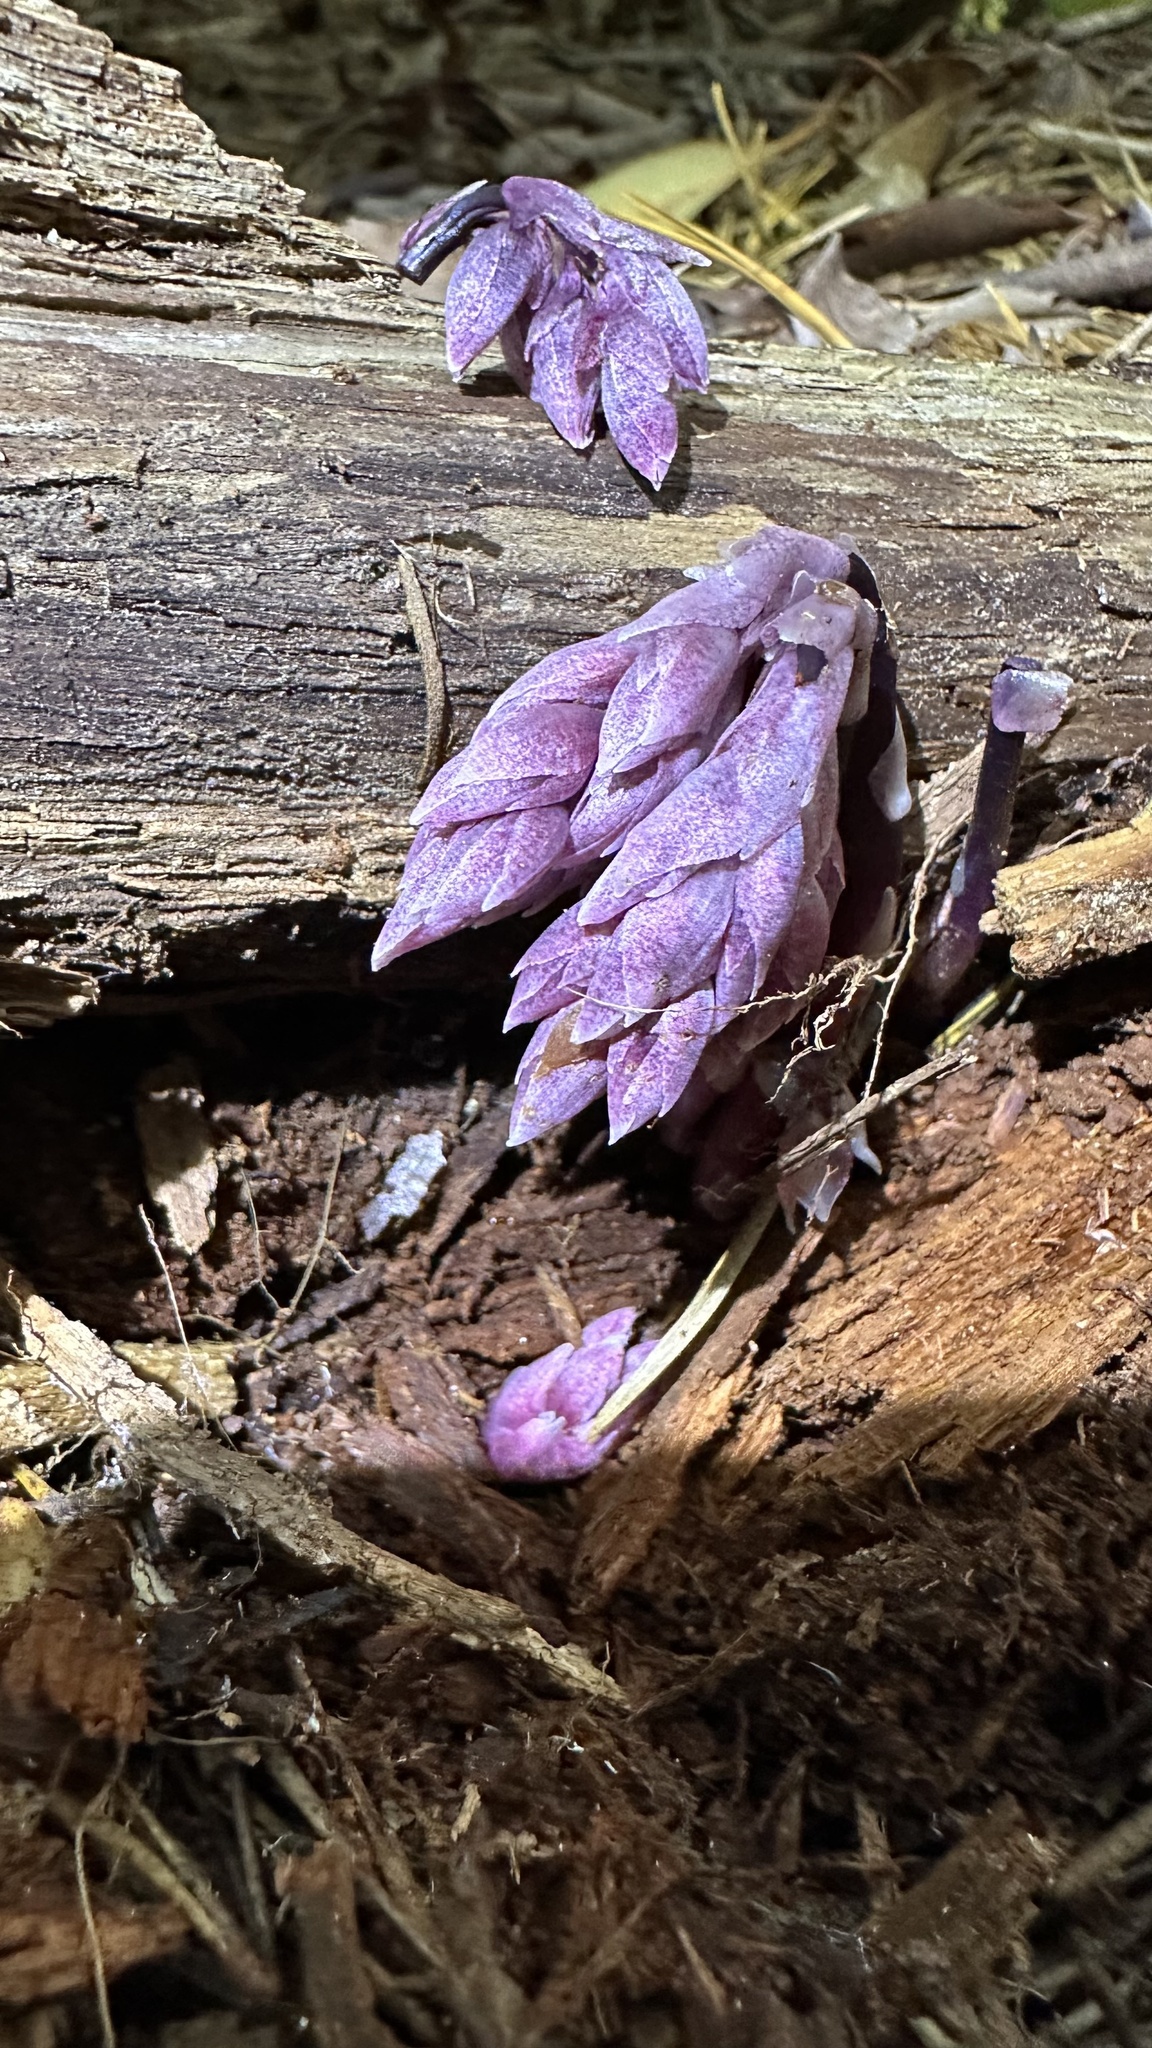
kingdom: Plantae
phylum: Tracheophyta
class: Magnoliopsida
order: Ericales
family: Ericaceae
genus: Monotropsis
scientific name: Monotropsis odorata
